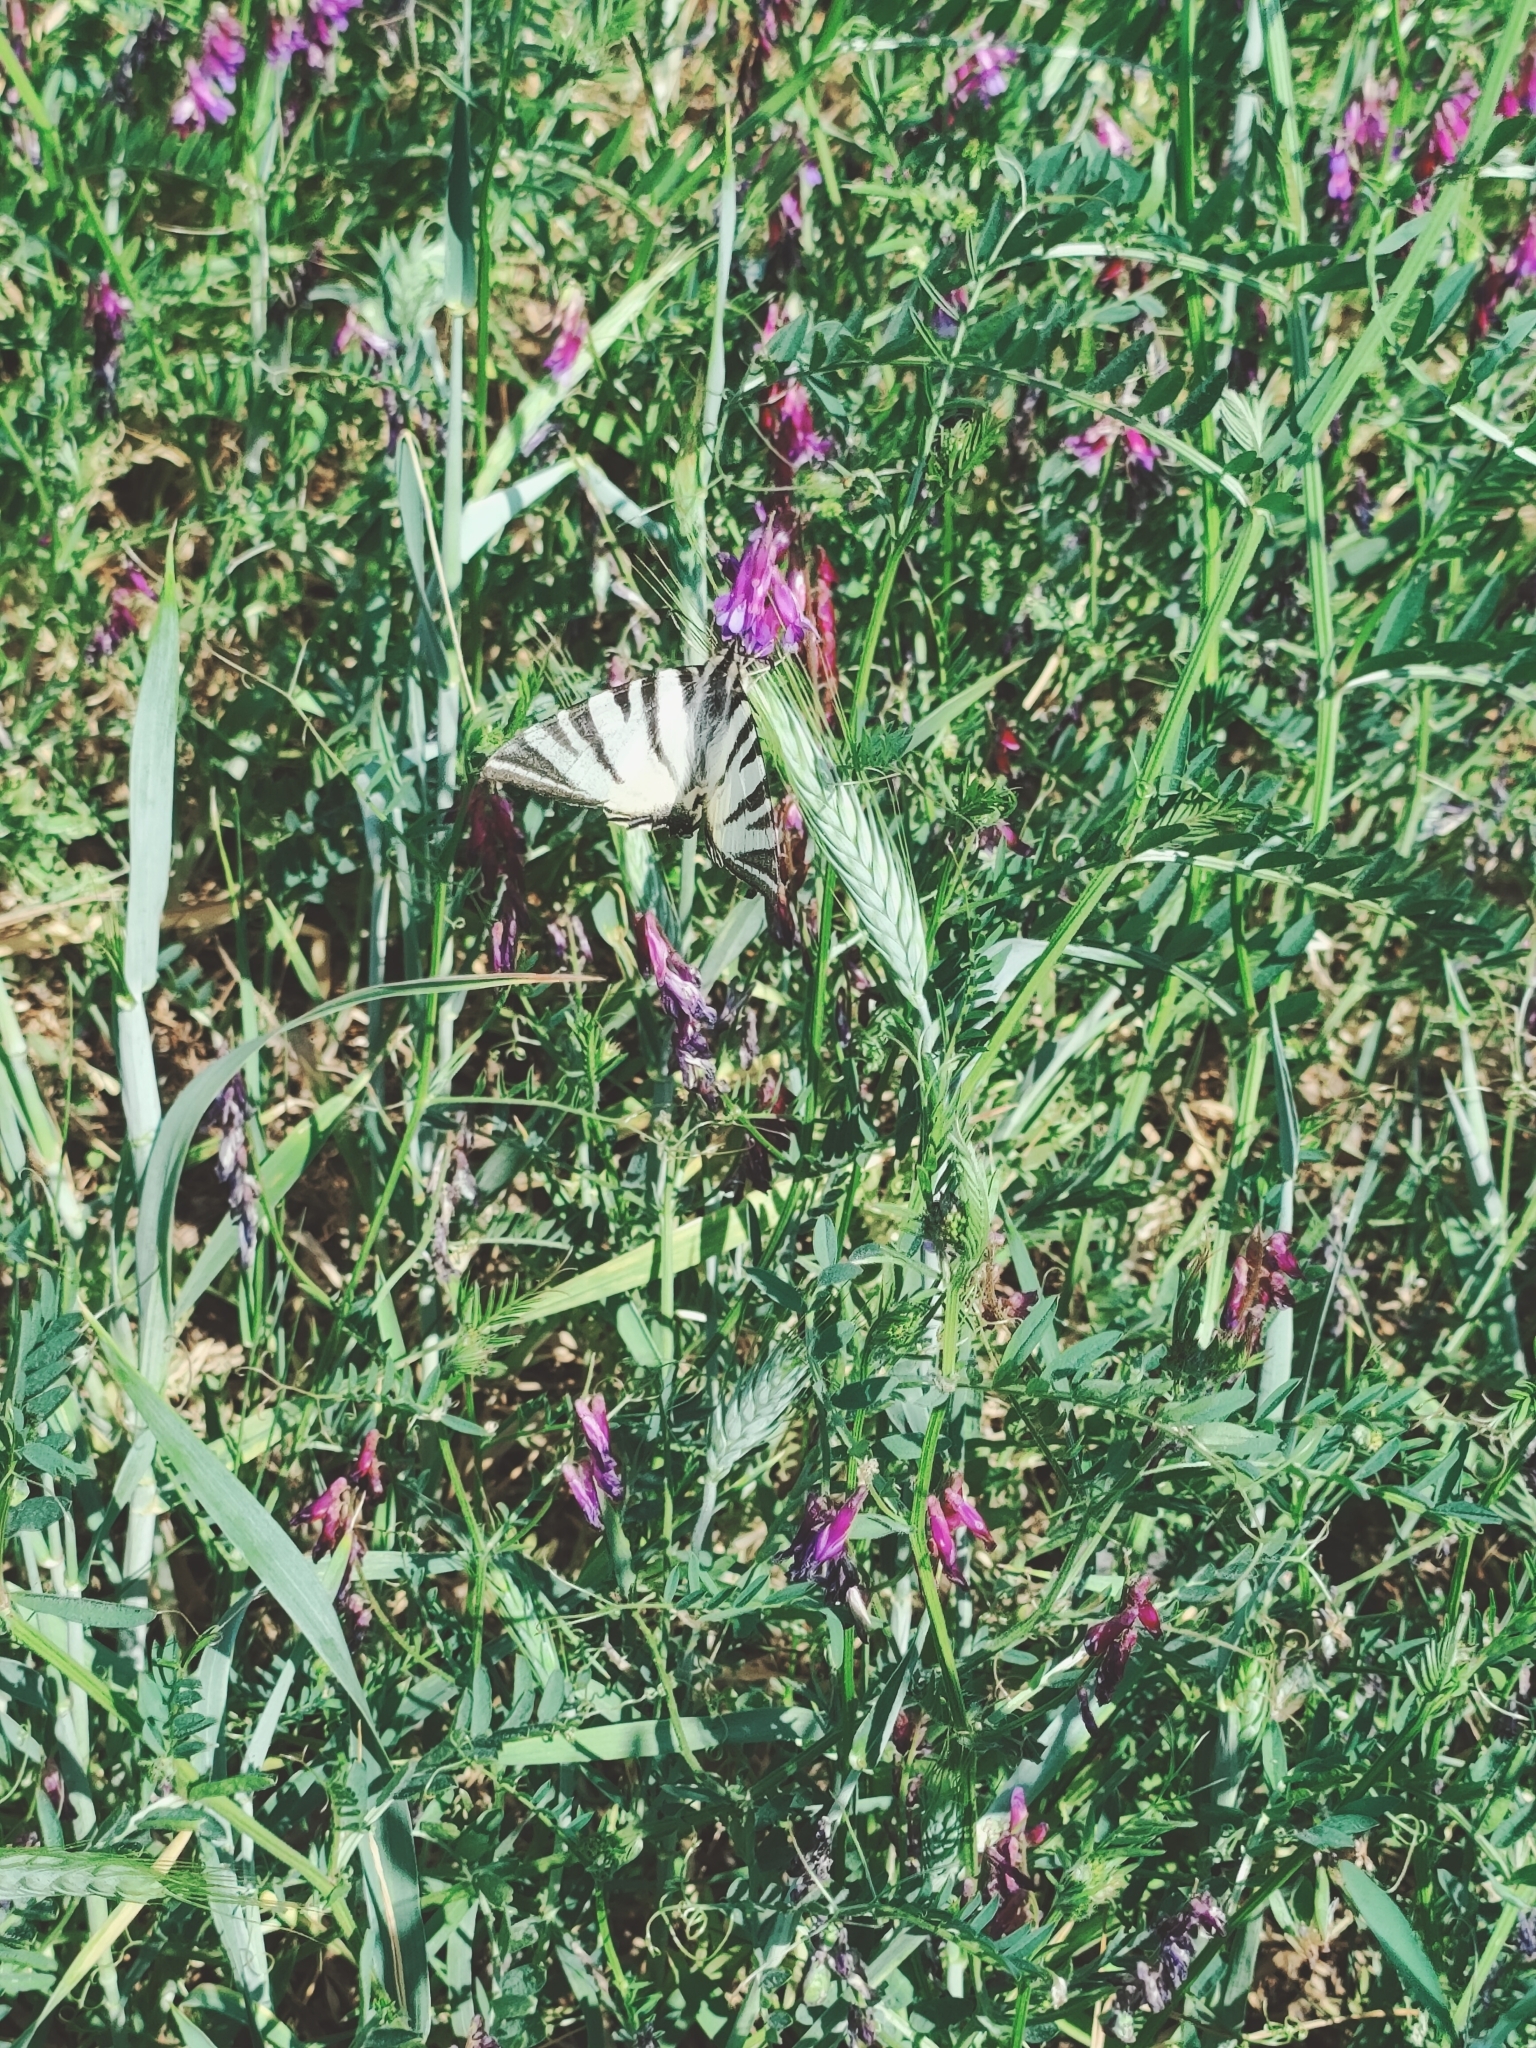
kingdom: Animalia
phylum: Arthropoda
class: Insecta
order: Lepidoptera
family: Papilionidae
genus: Iphiclides
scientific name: Iphiclides podalirius
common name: Scarce swallowtail
